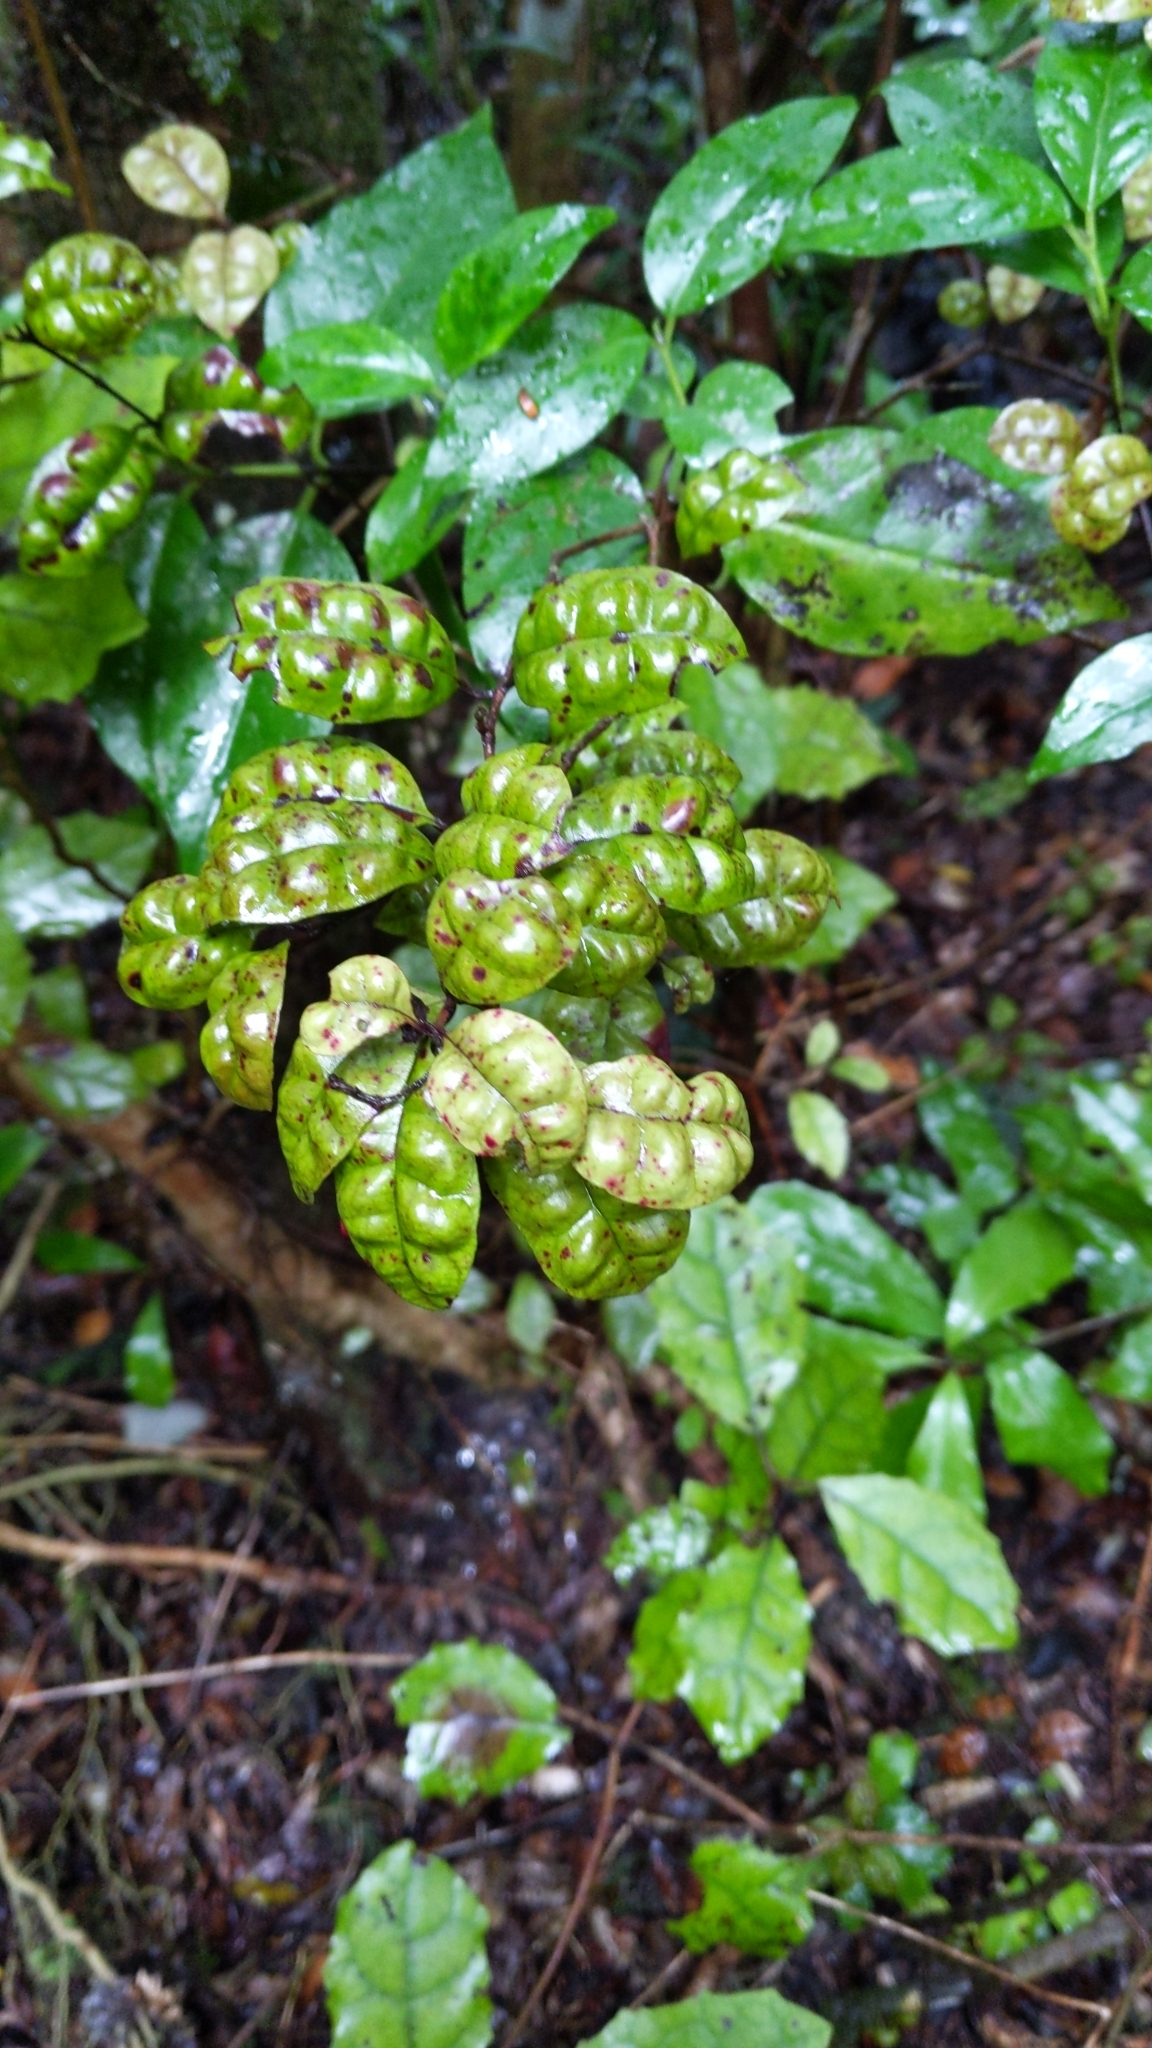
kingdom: Plantae
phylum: Tracheophyta
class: Magnoliopsida
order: Myrtales
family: Myrtaceae
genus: Lophomyrtus
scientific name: Lophomyrtus bullata
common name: Rama rama
